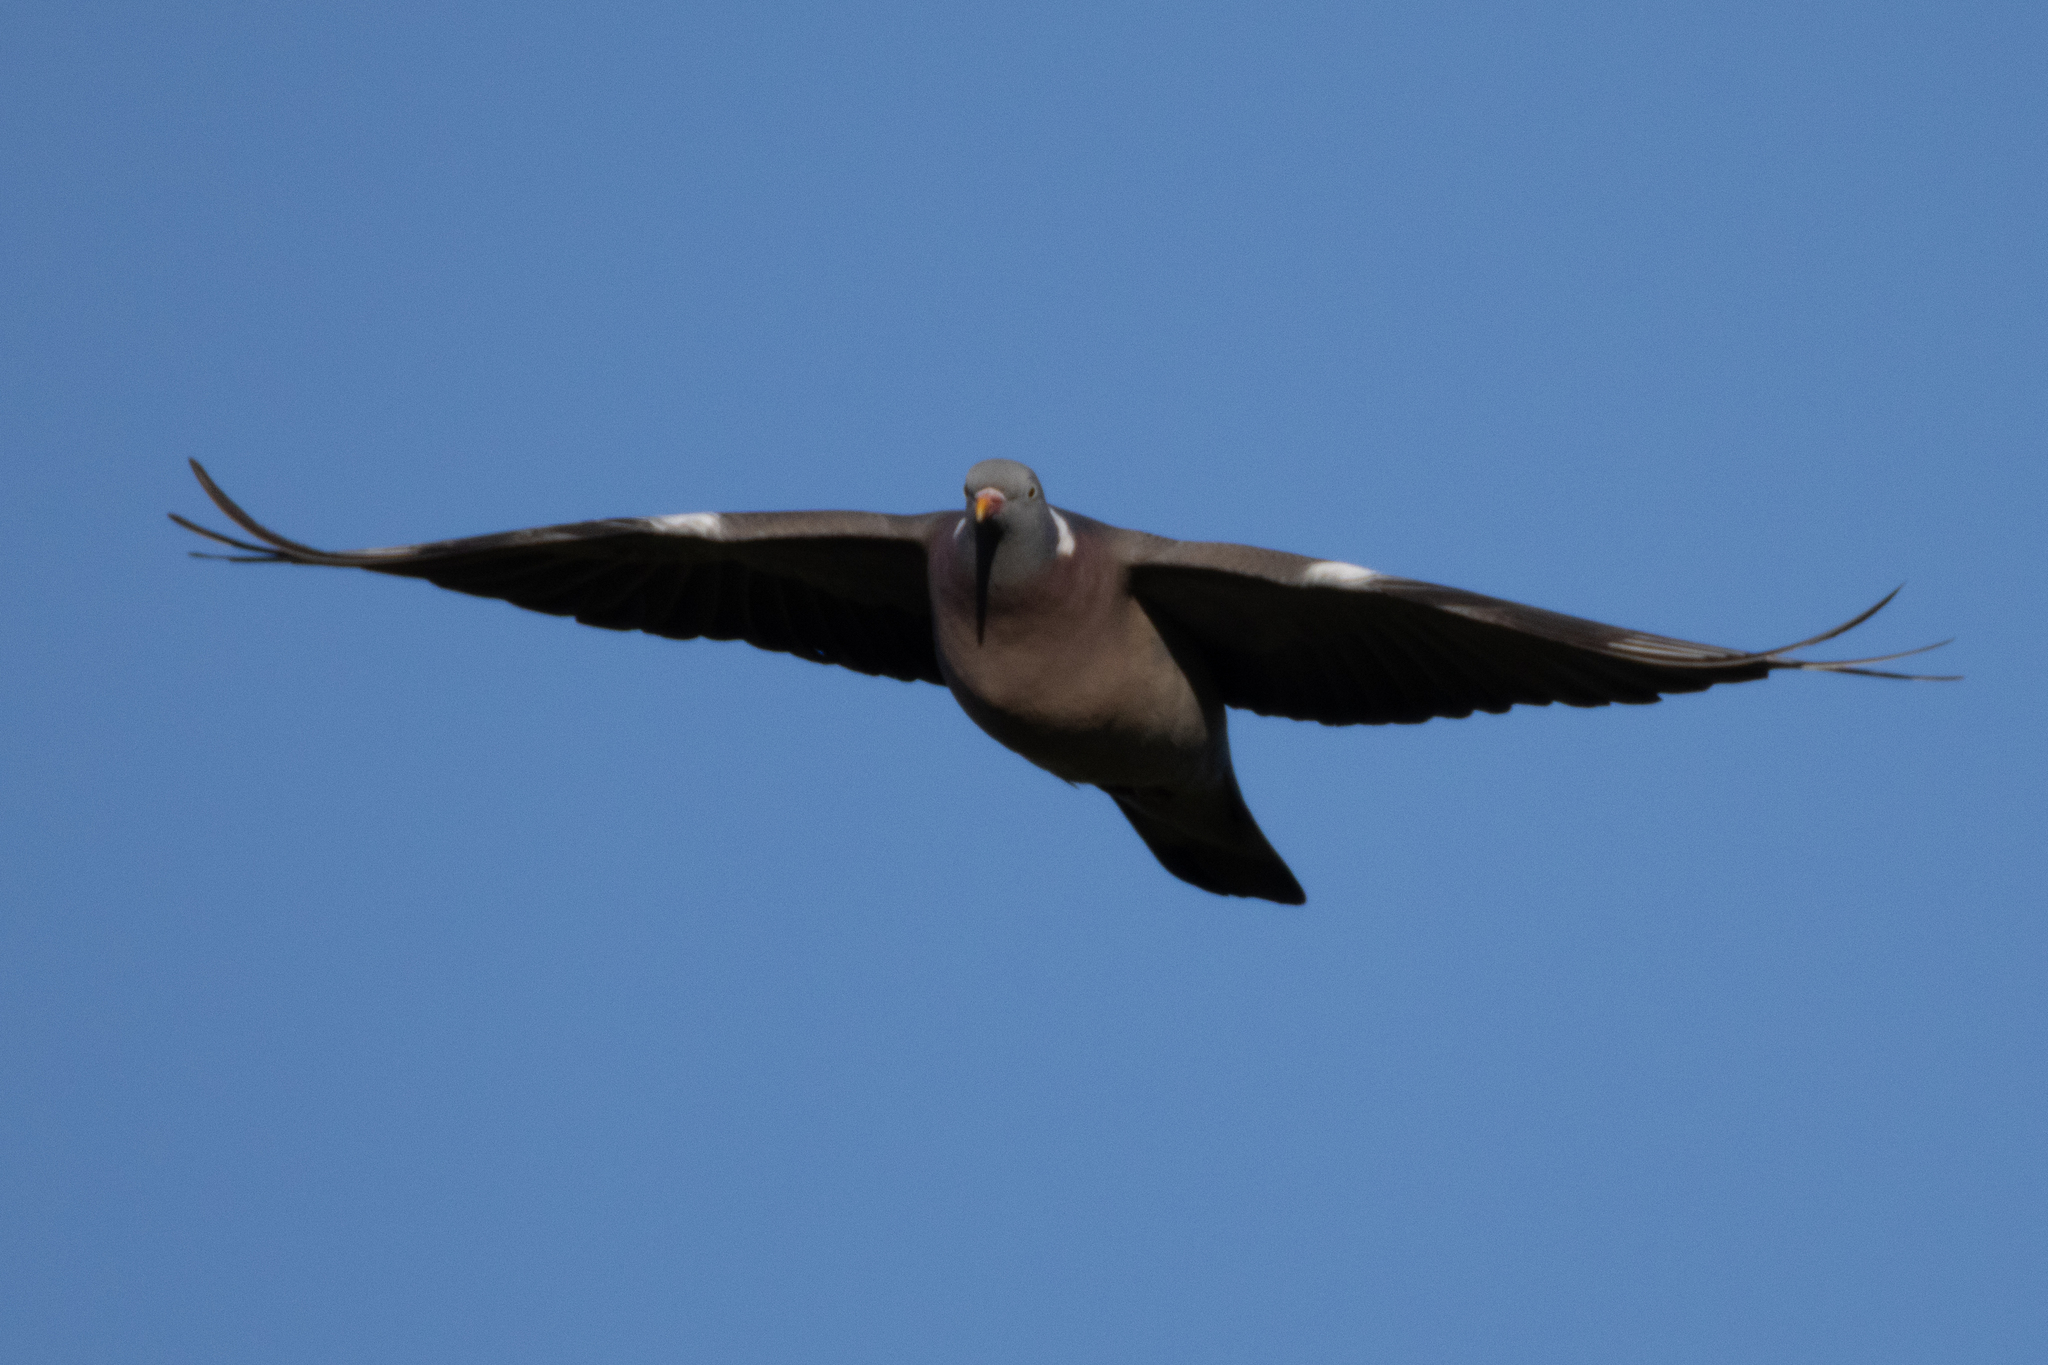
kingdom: Animalia
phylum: Chordata
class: Aves
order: Columbiformes
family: Columbidae
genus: Columba
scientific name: Columba palumbus
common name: Common wood pigeon
